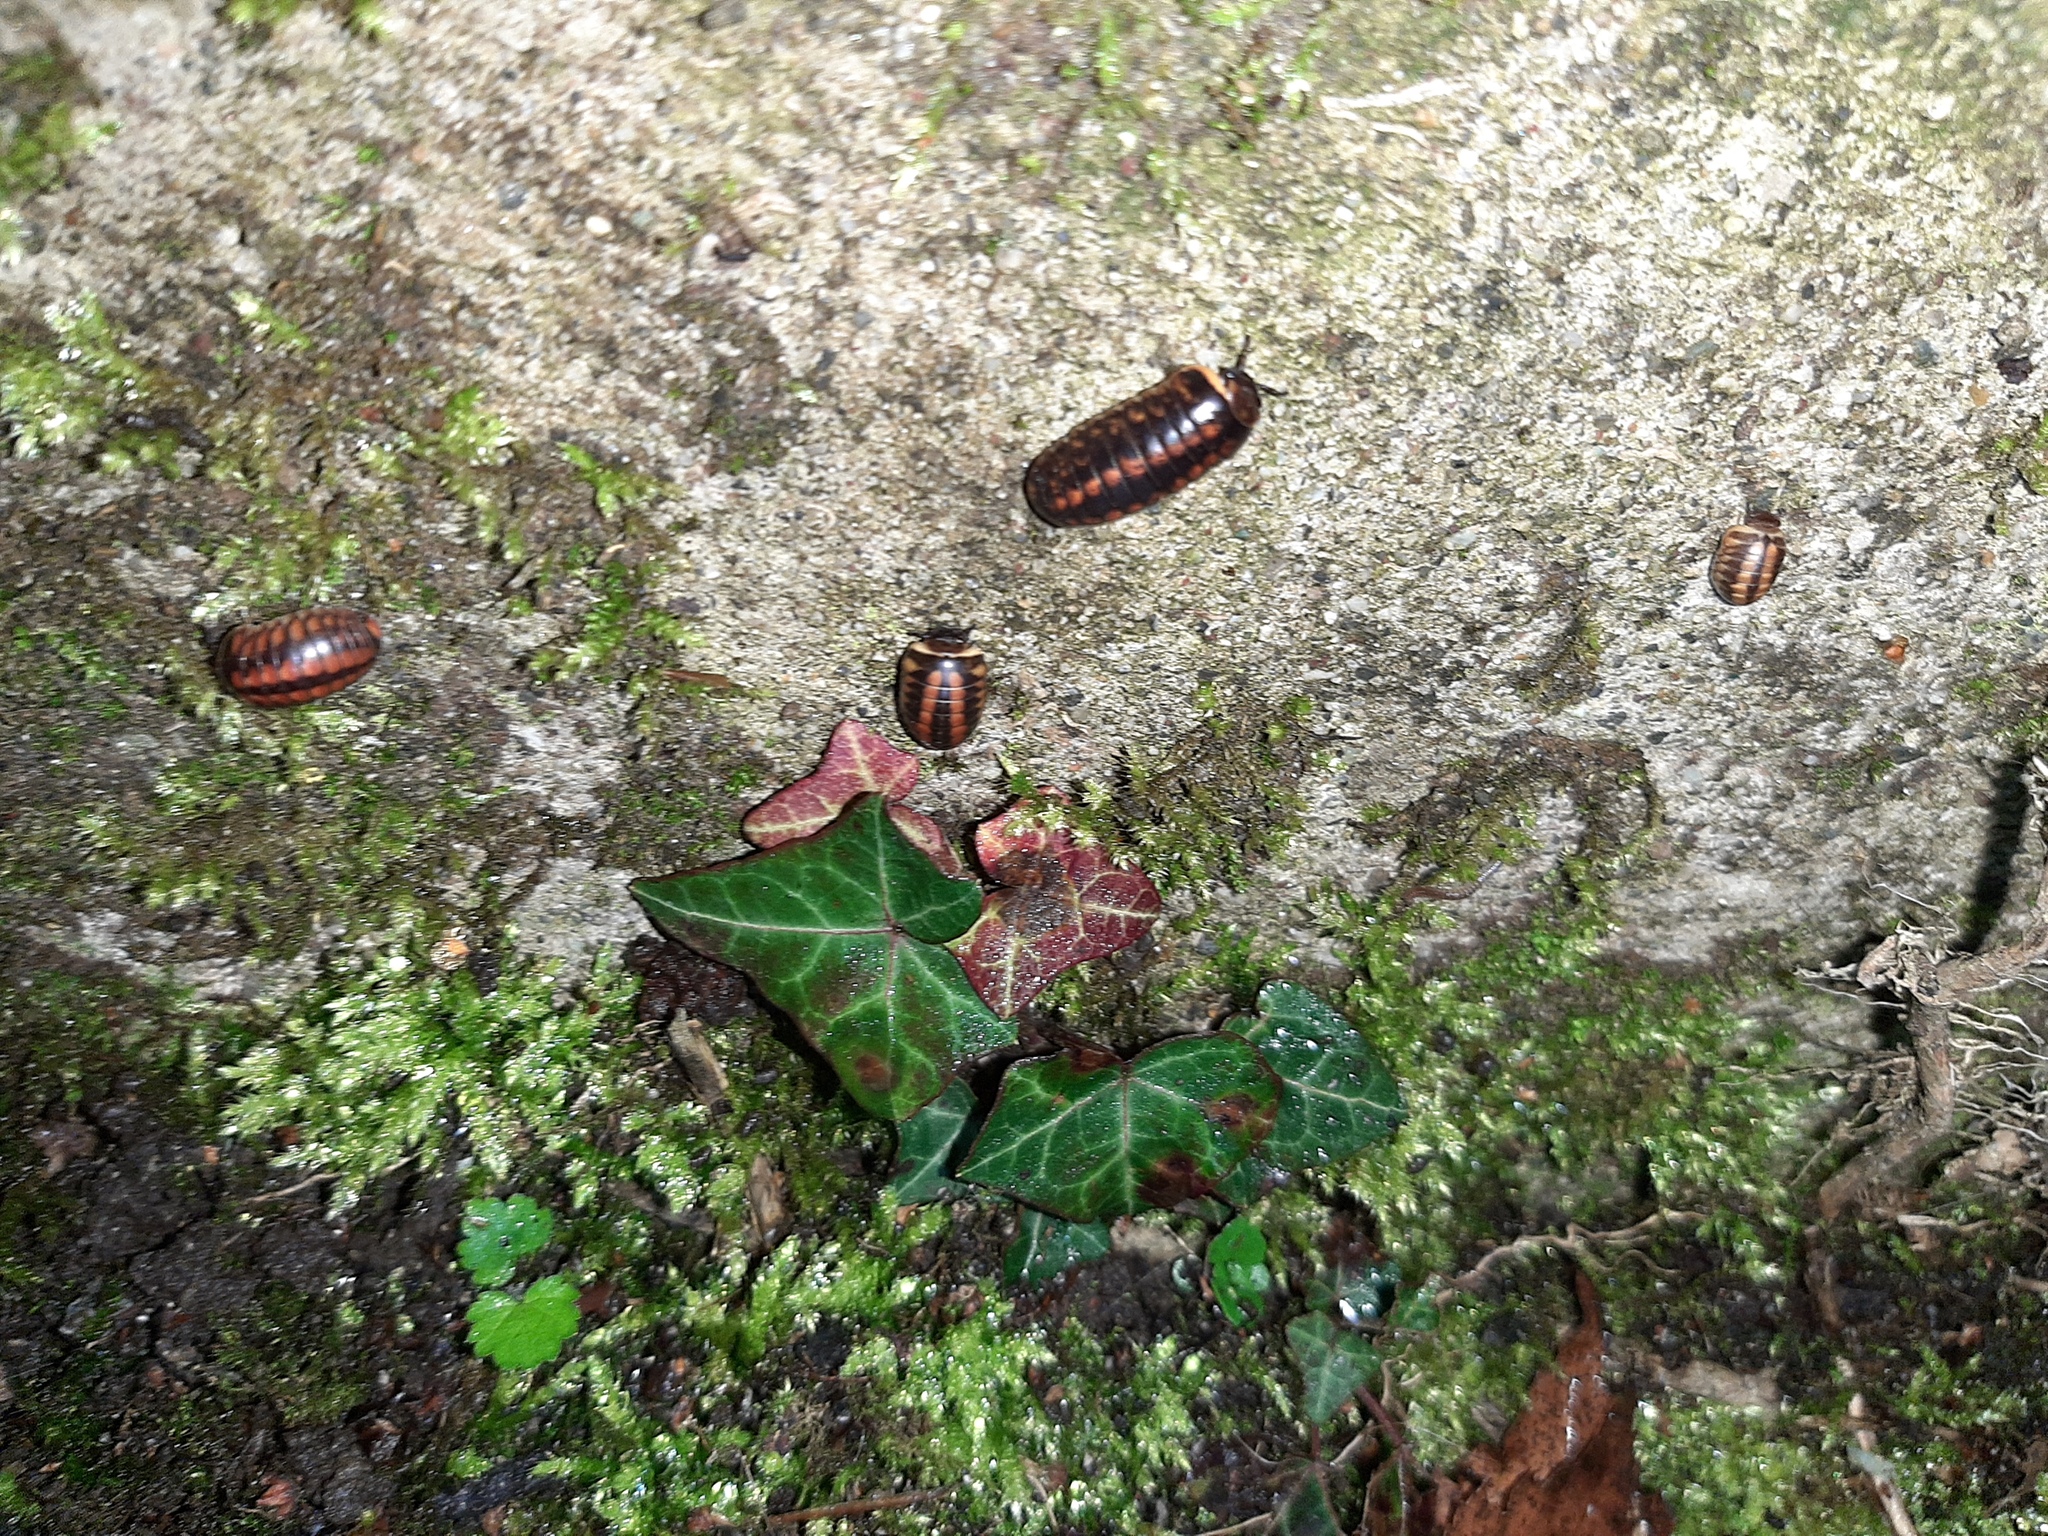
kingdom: Animalia
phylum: Arthropoda
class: Diplopoda
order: Glomerida
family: Glomeridae
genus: Glomeris
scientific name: Glomeris klugii
